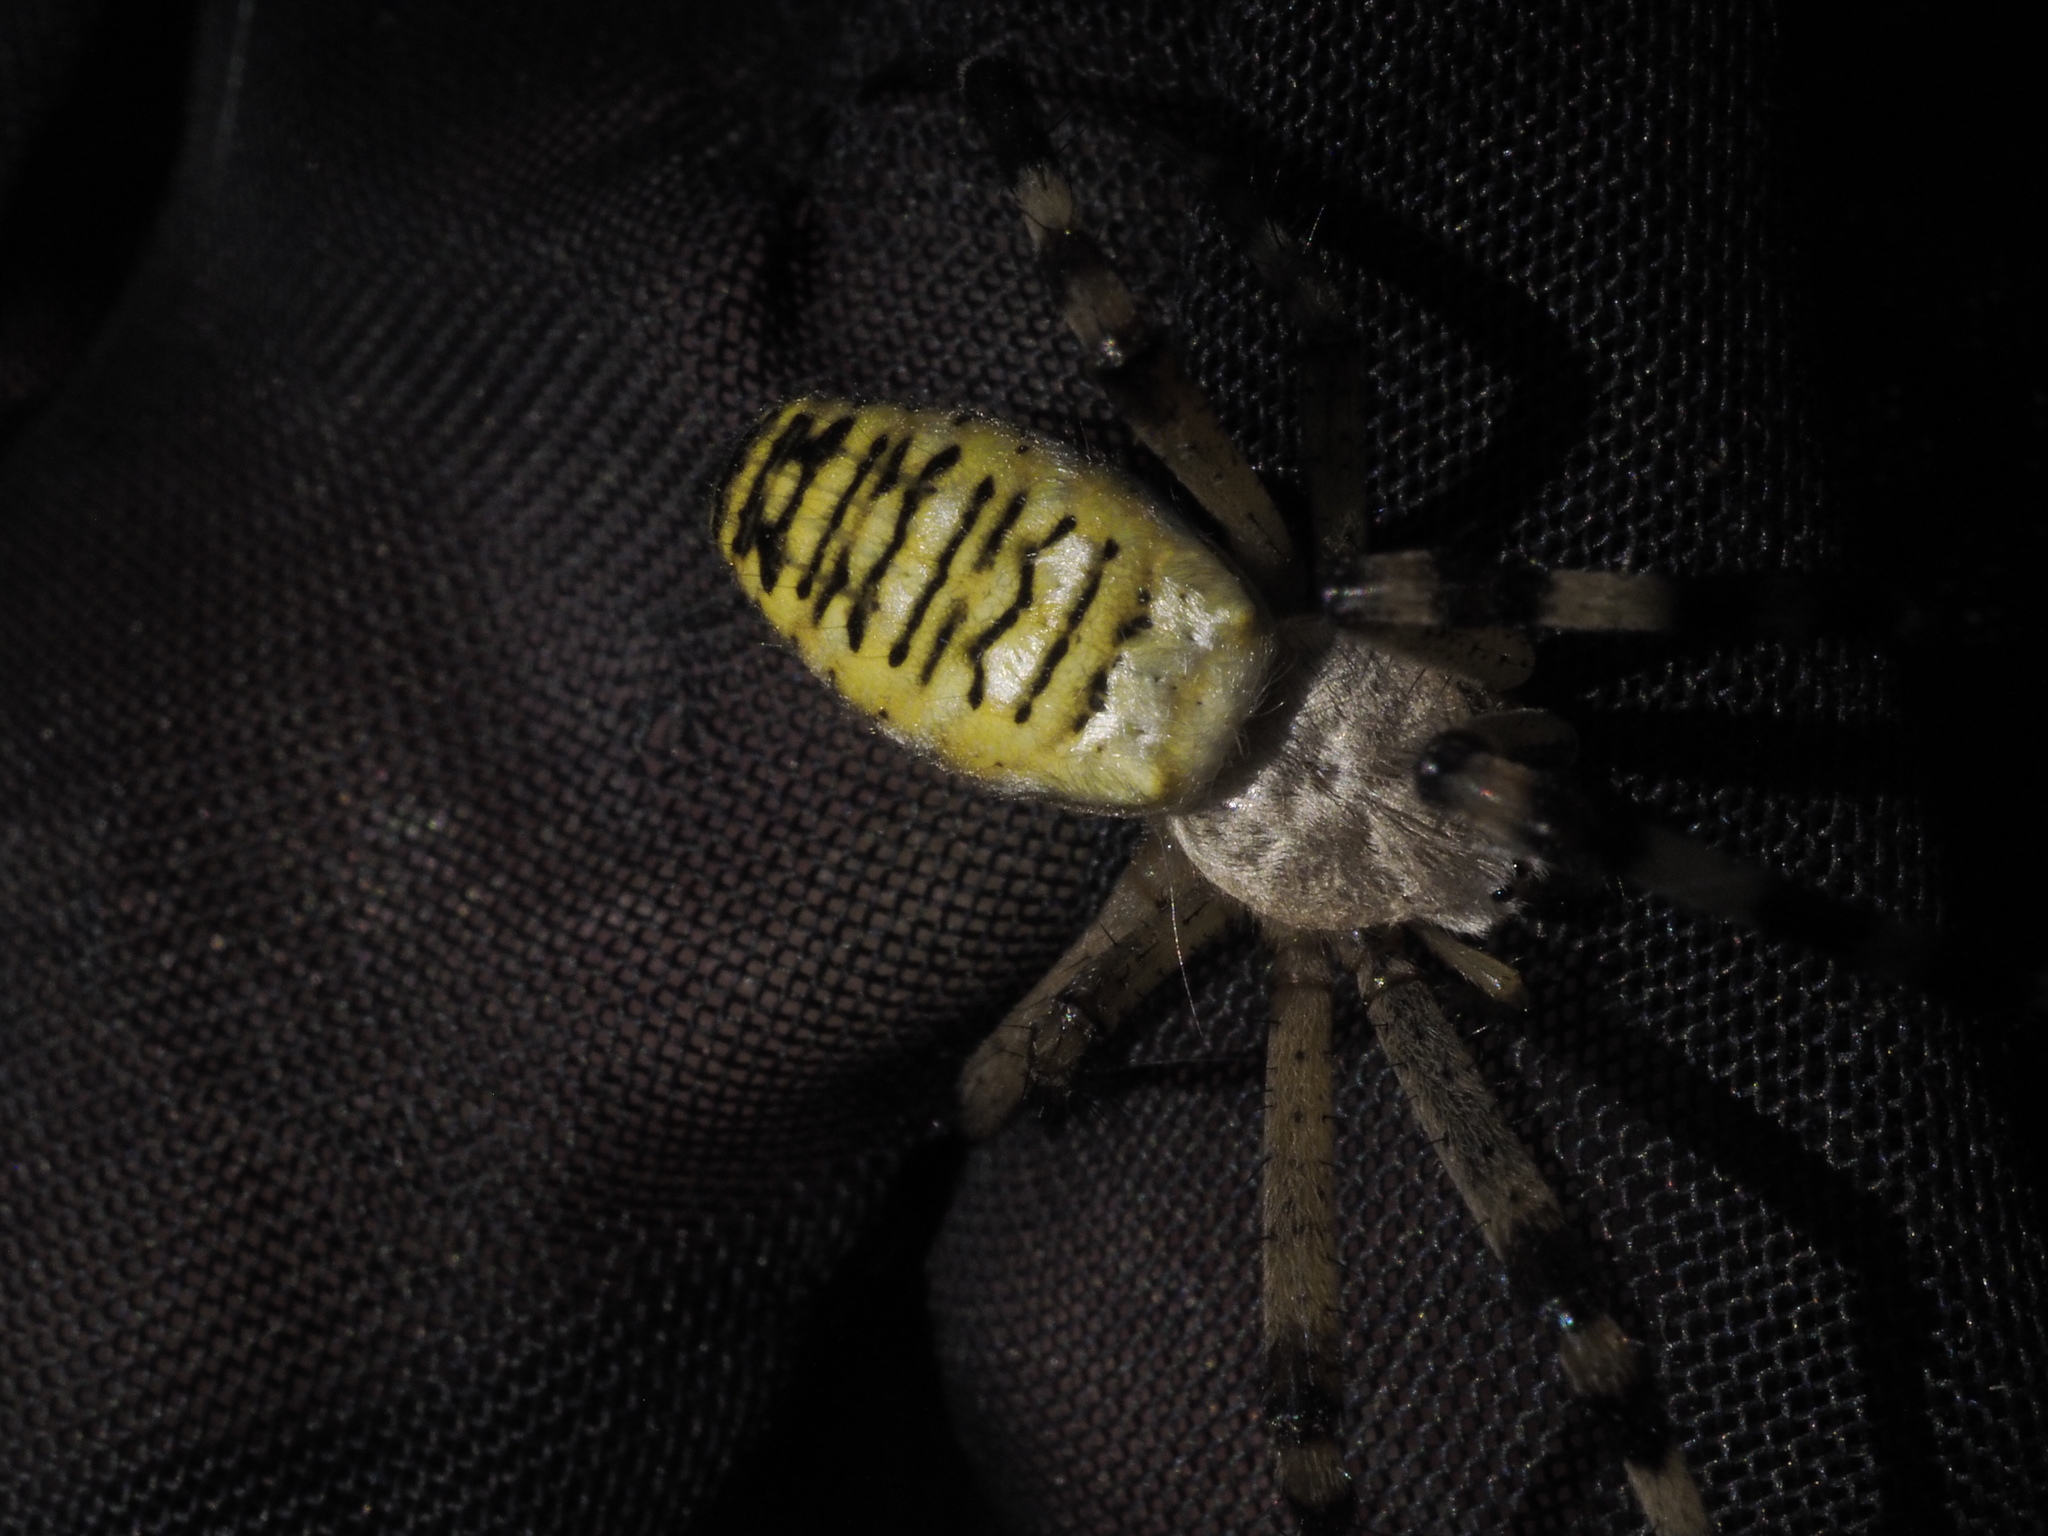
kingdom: Animalia
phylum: Arthropoda
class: Arachnida
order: Araneae
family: Araneidae
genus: Argiope
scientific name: Argiope bruennichi
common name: Wasp spider
